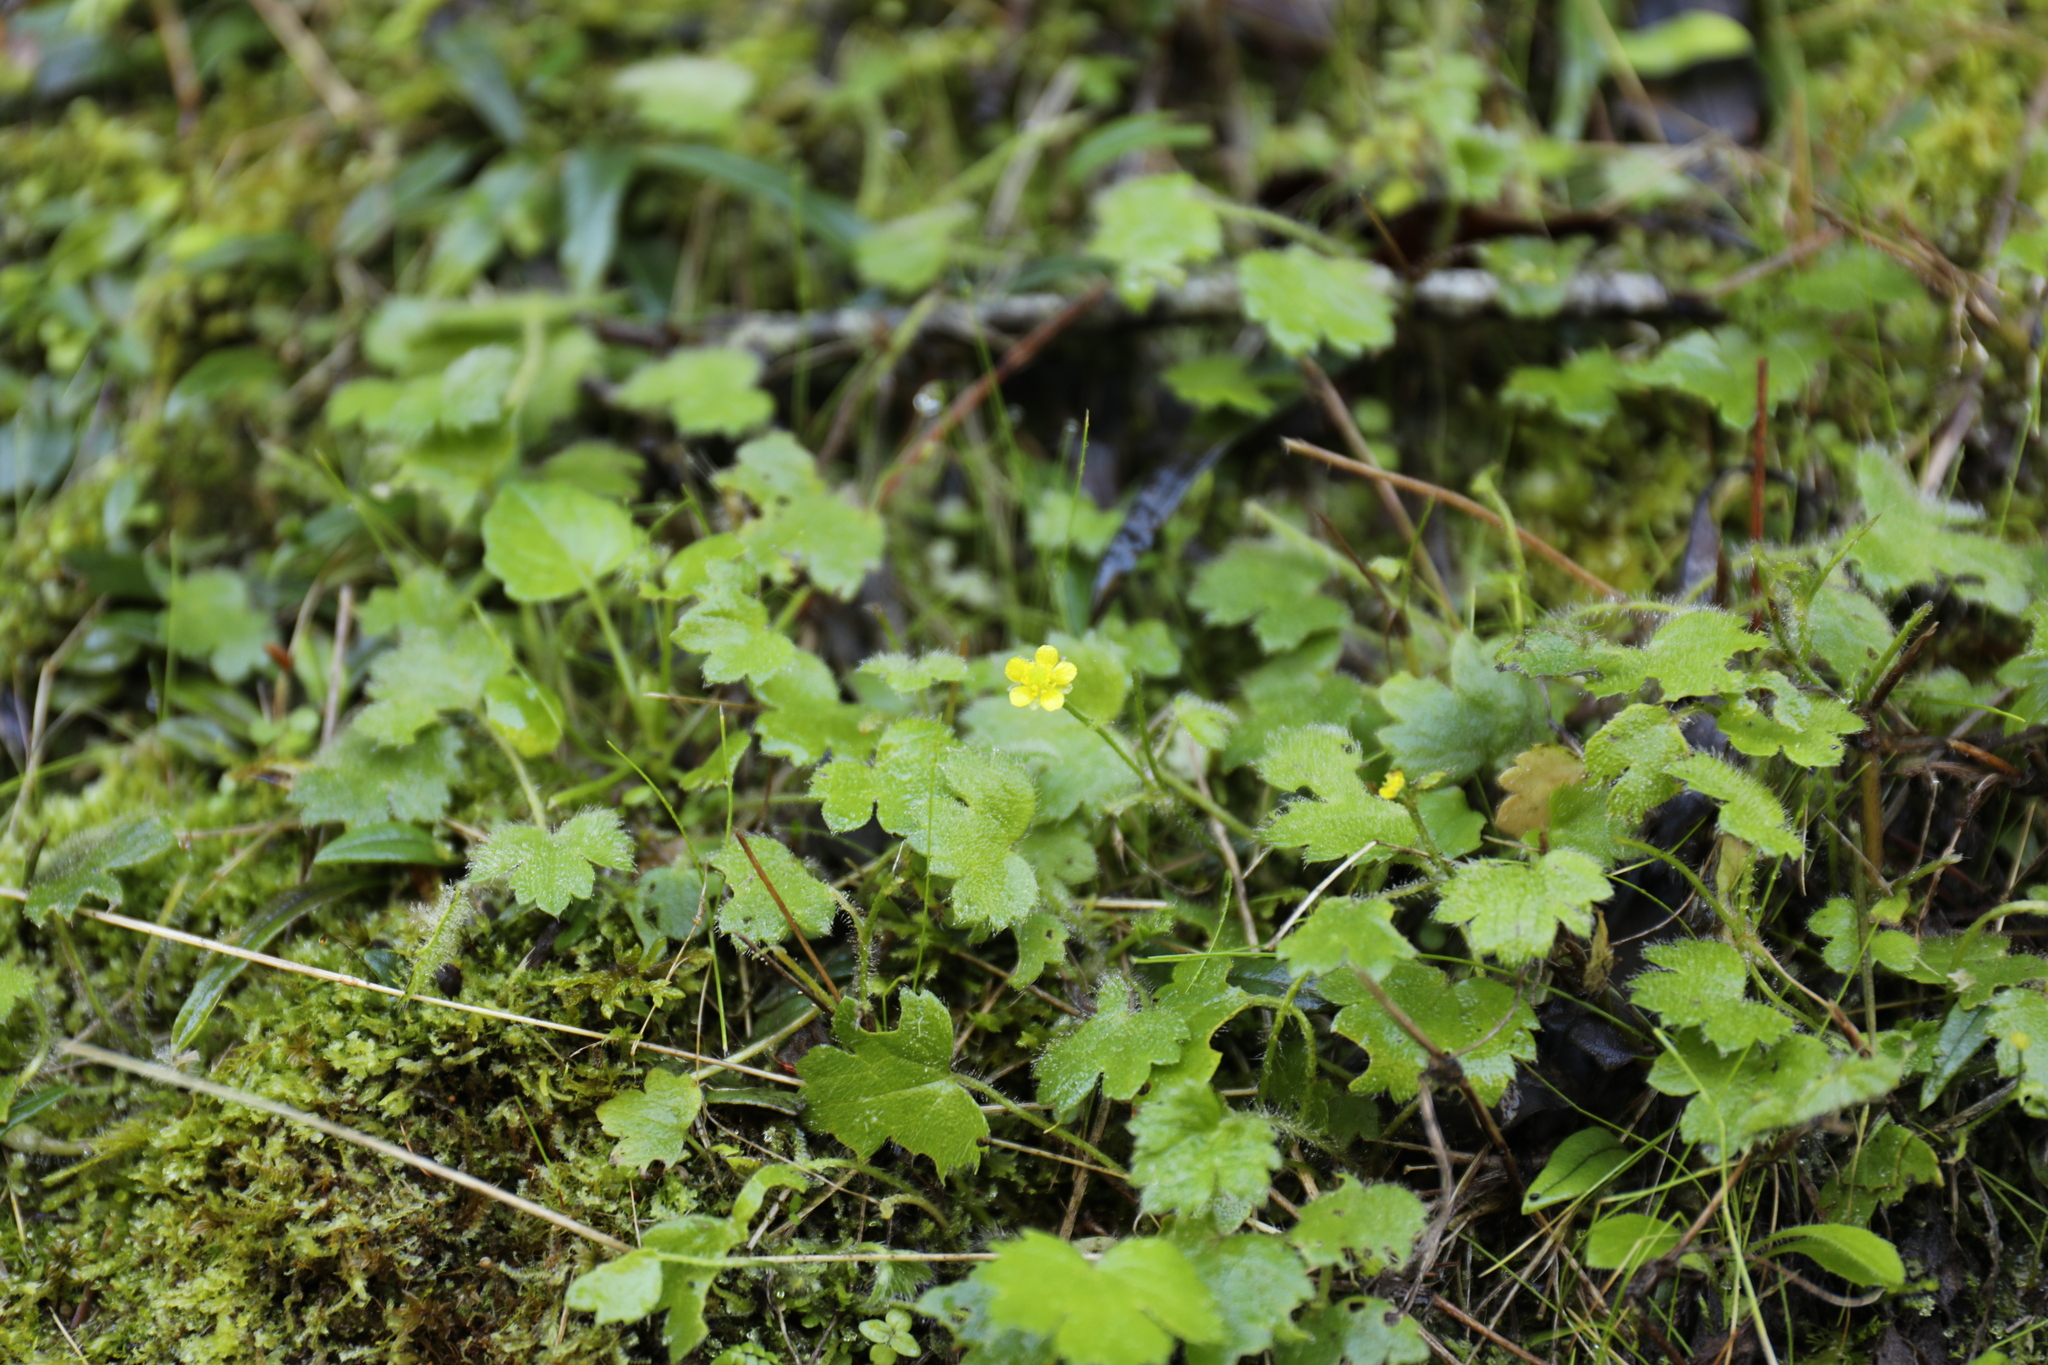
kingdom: Plantae
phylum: Tracheophyta
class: Magnoliopsida
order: Ranunculales
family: Ranunculaceae
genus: Ranunculus
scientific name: Ranunculus taisanensis
